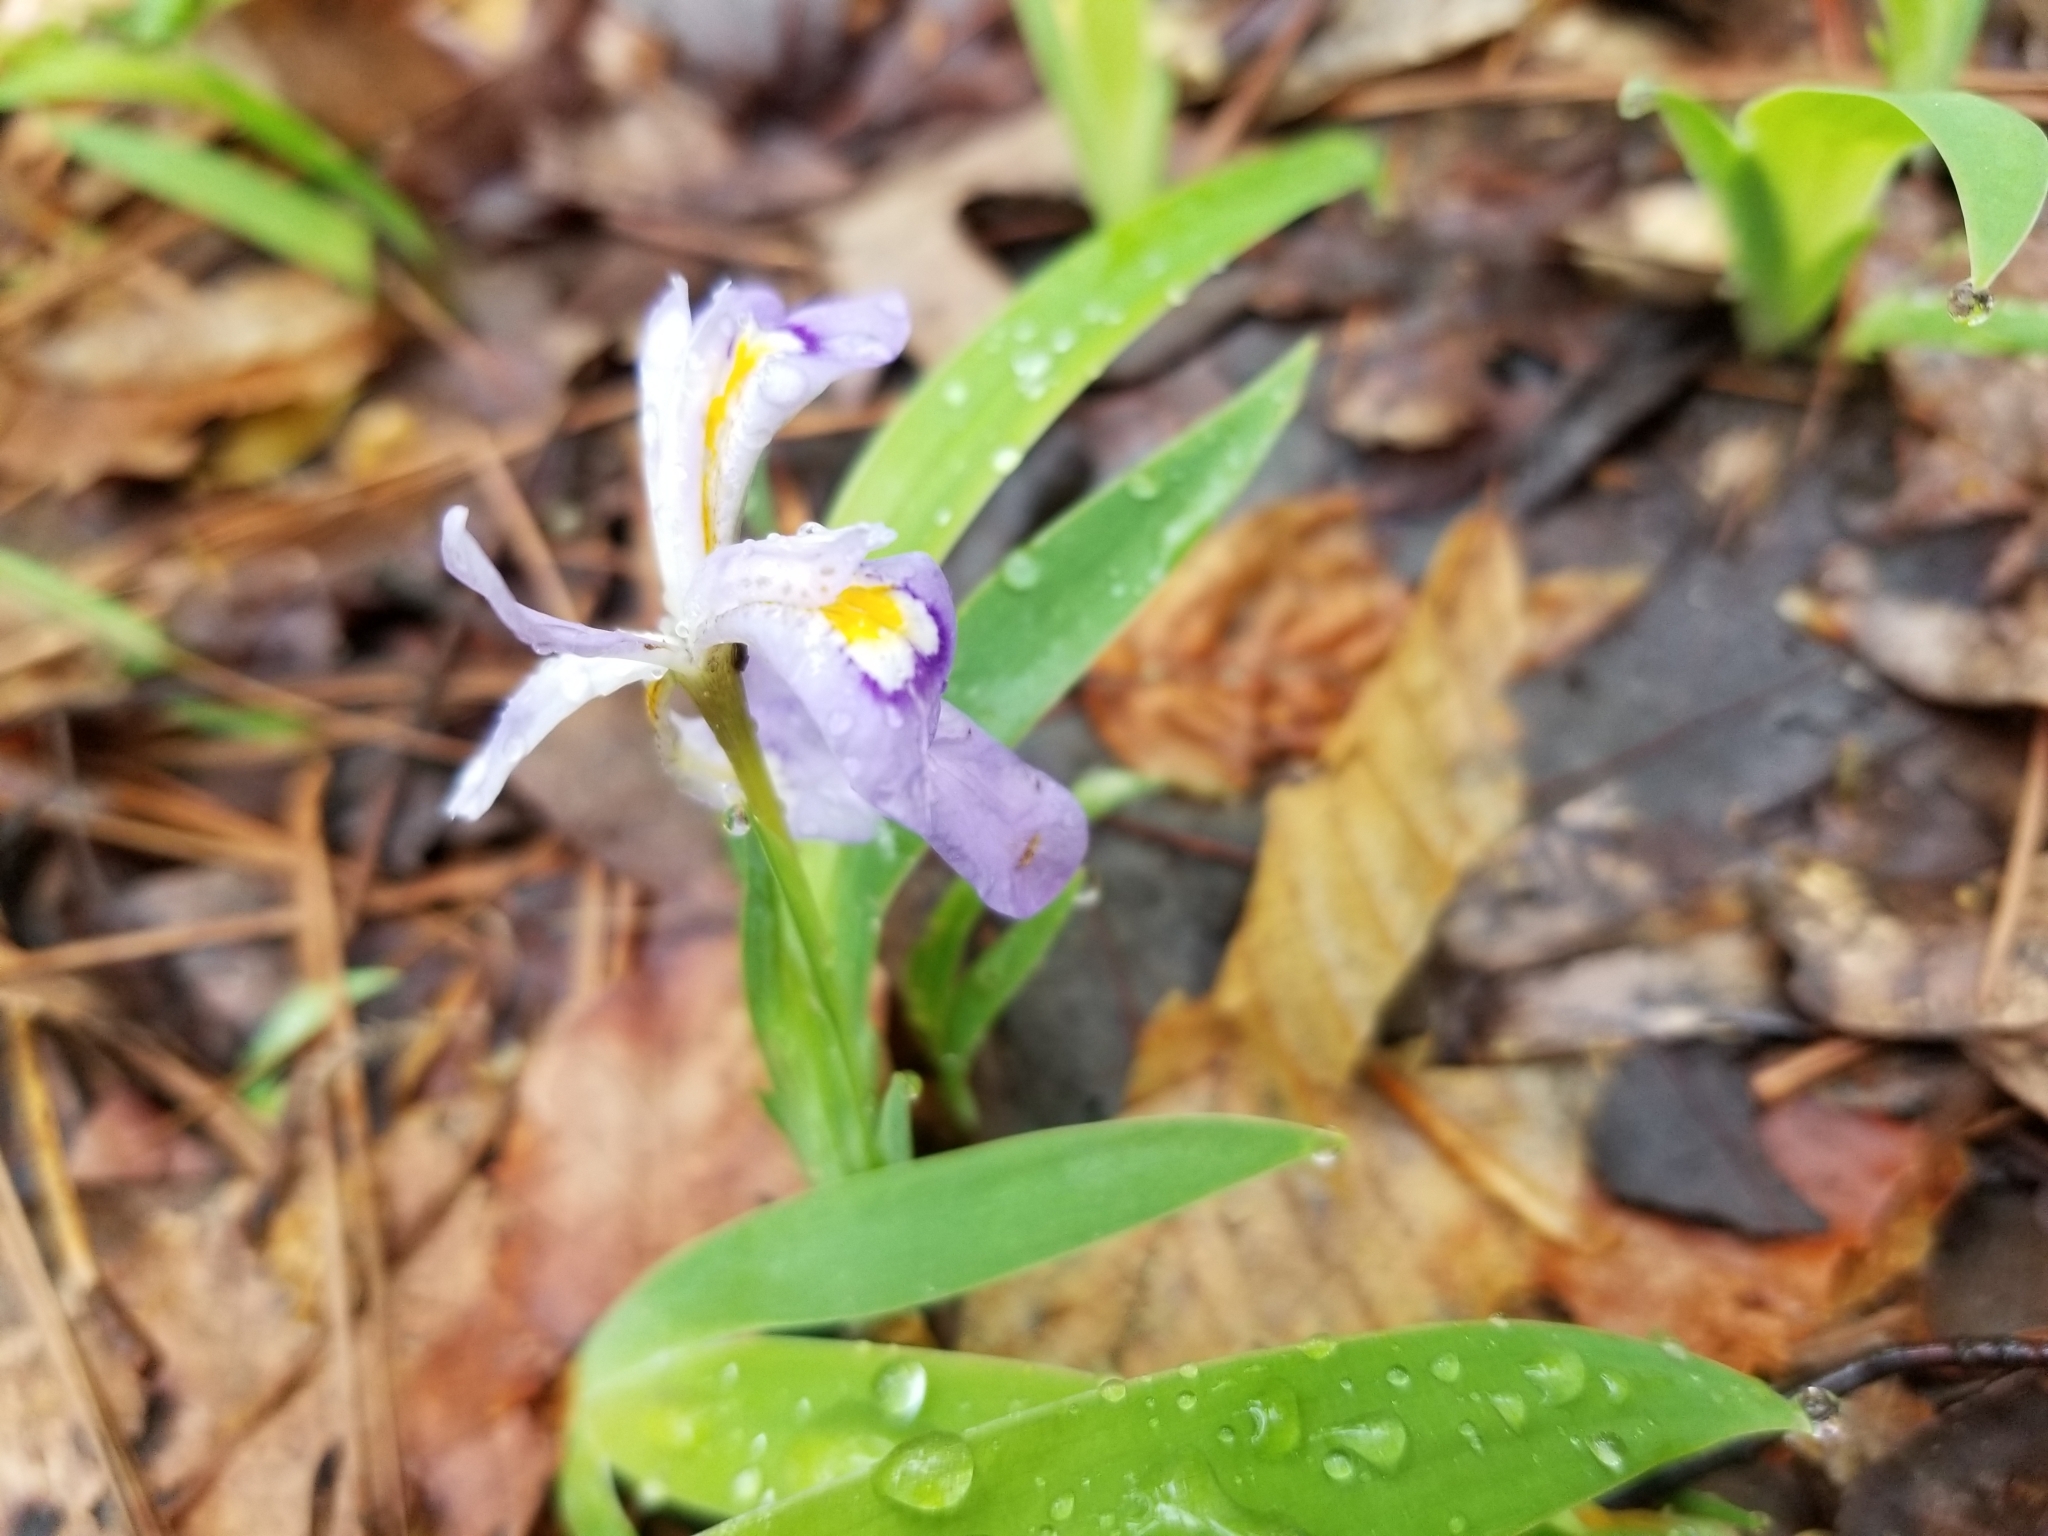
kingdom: Plantae
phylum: Tracheophyta
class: Liliopsida
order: Asparagales
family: Iridaceae
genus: Iris
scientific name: Iris cristata
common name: Crested iris
